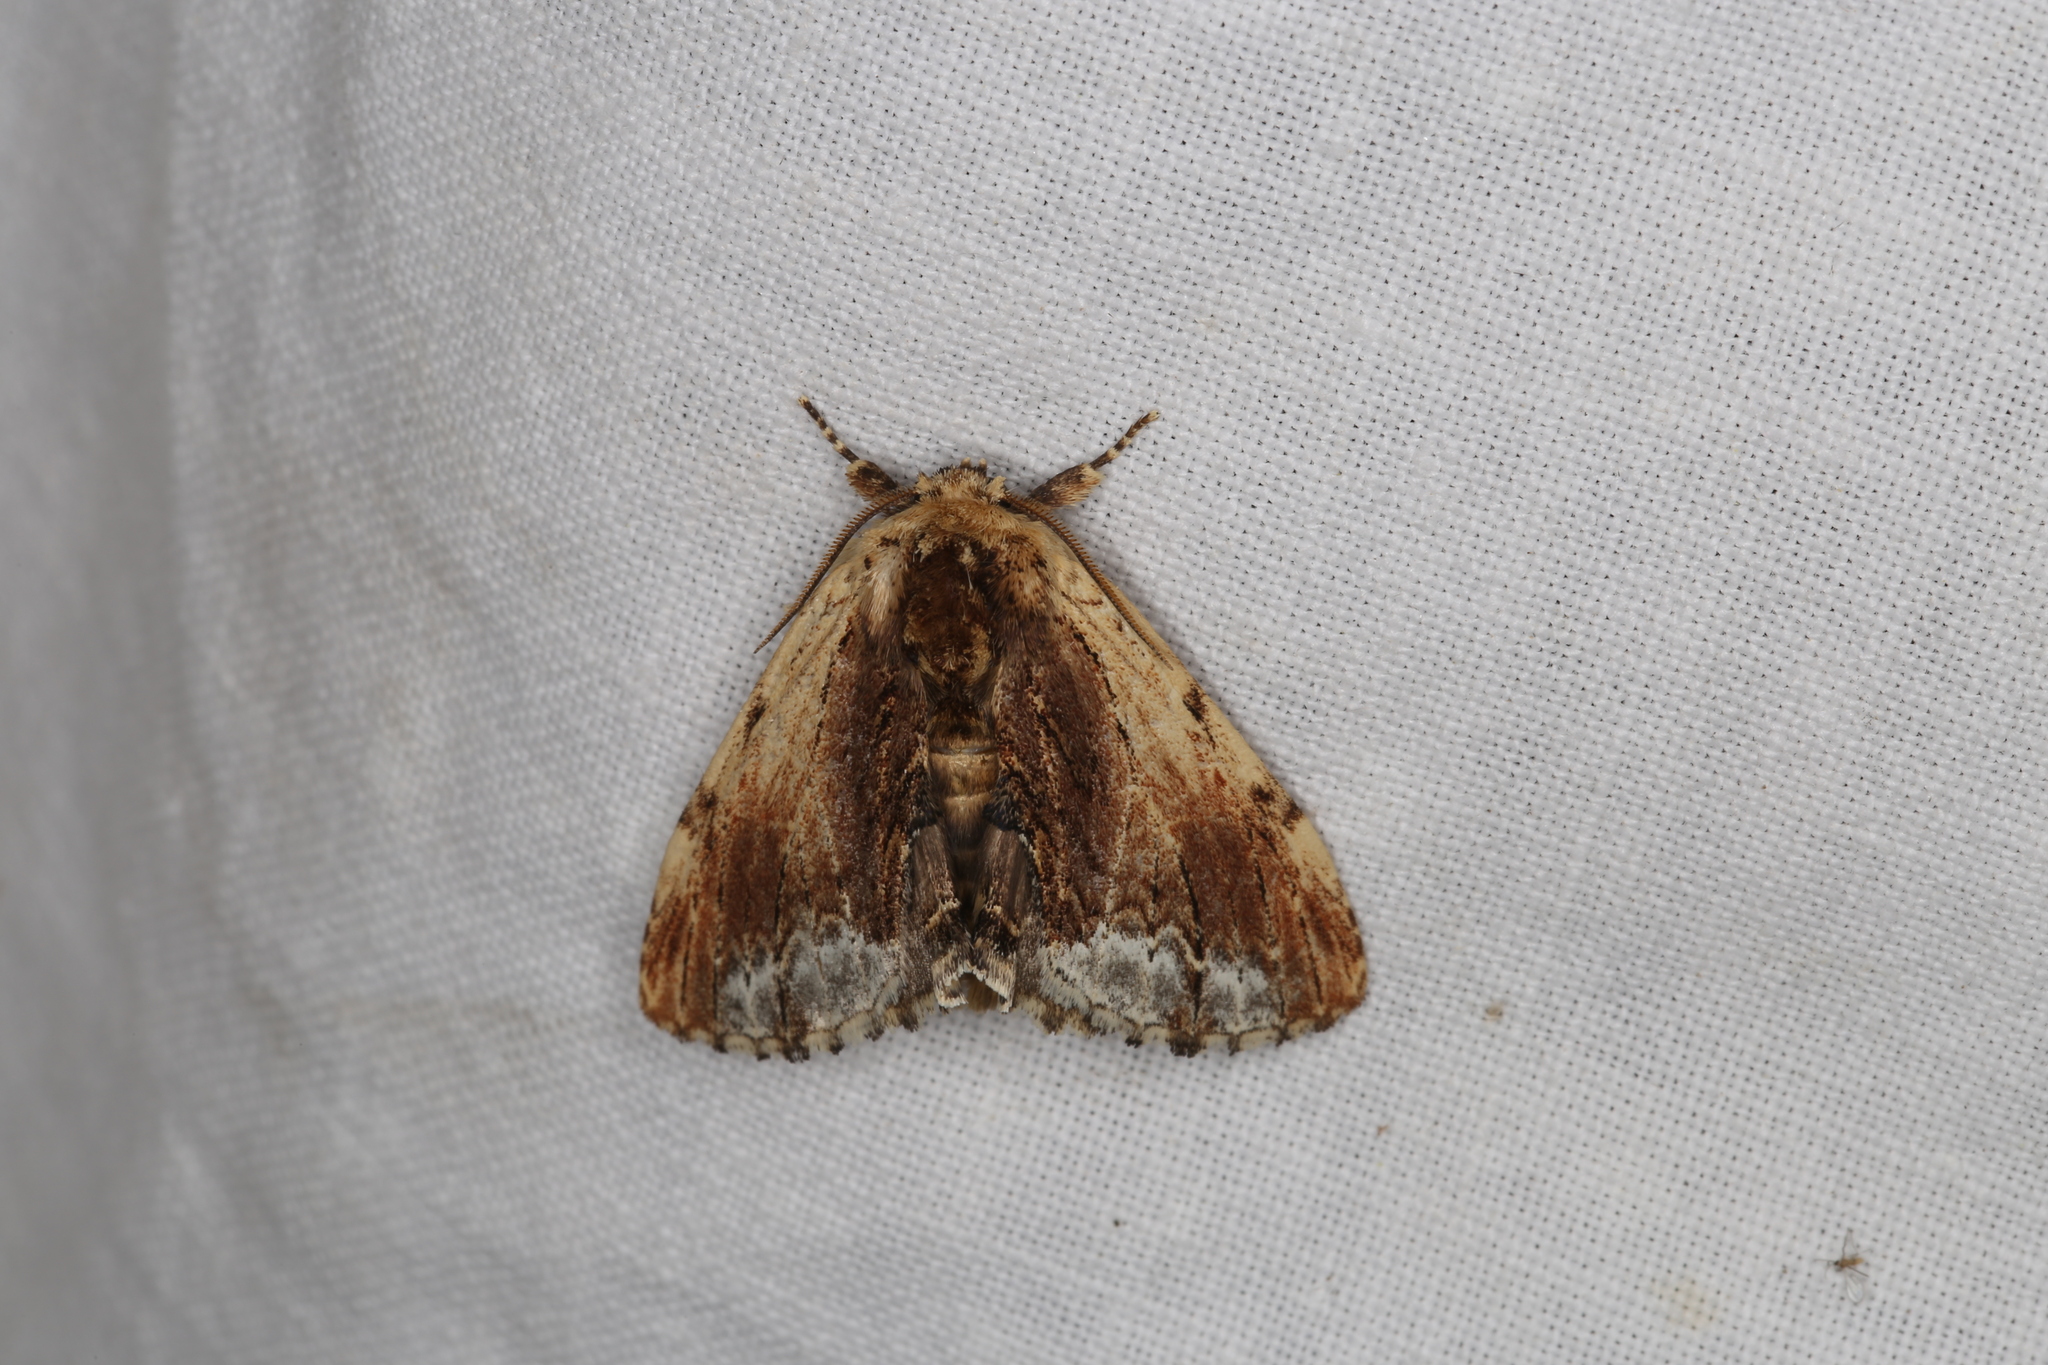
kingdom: Animalia
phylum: Arthropoda
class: Insecta
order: Lepidoptera
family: Notodontidae
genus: Ptilodon
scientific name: Ptilodon cucullina
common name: Maple prominent
